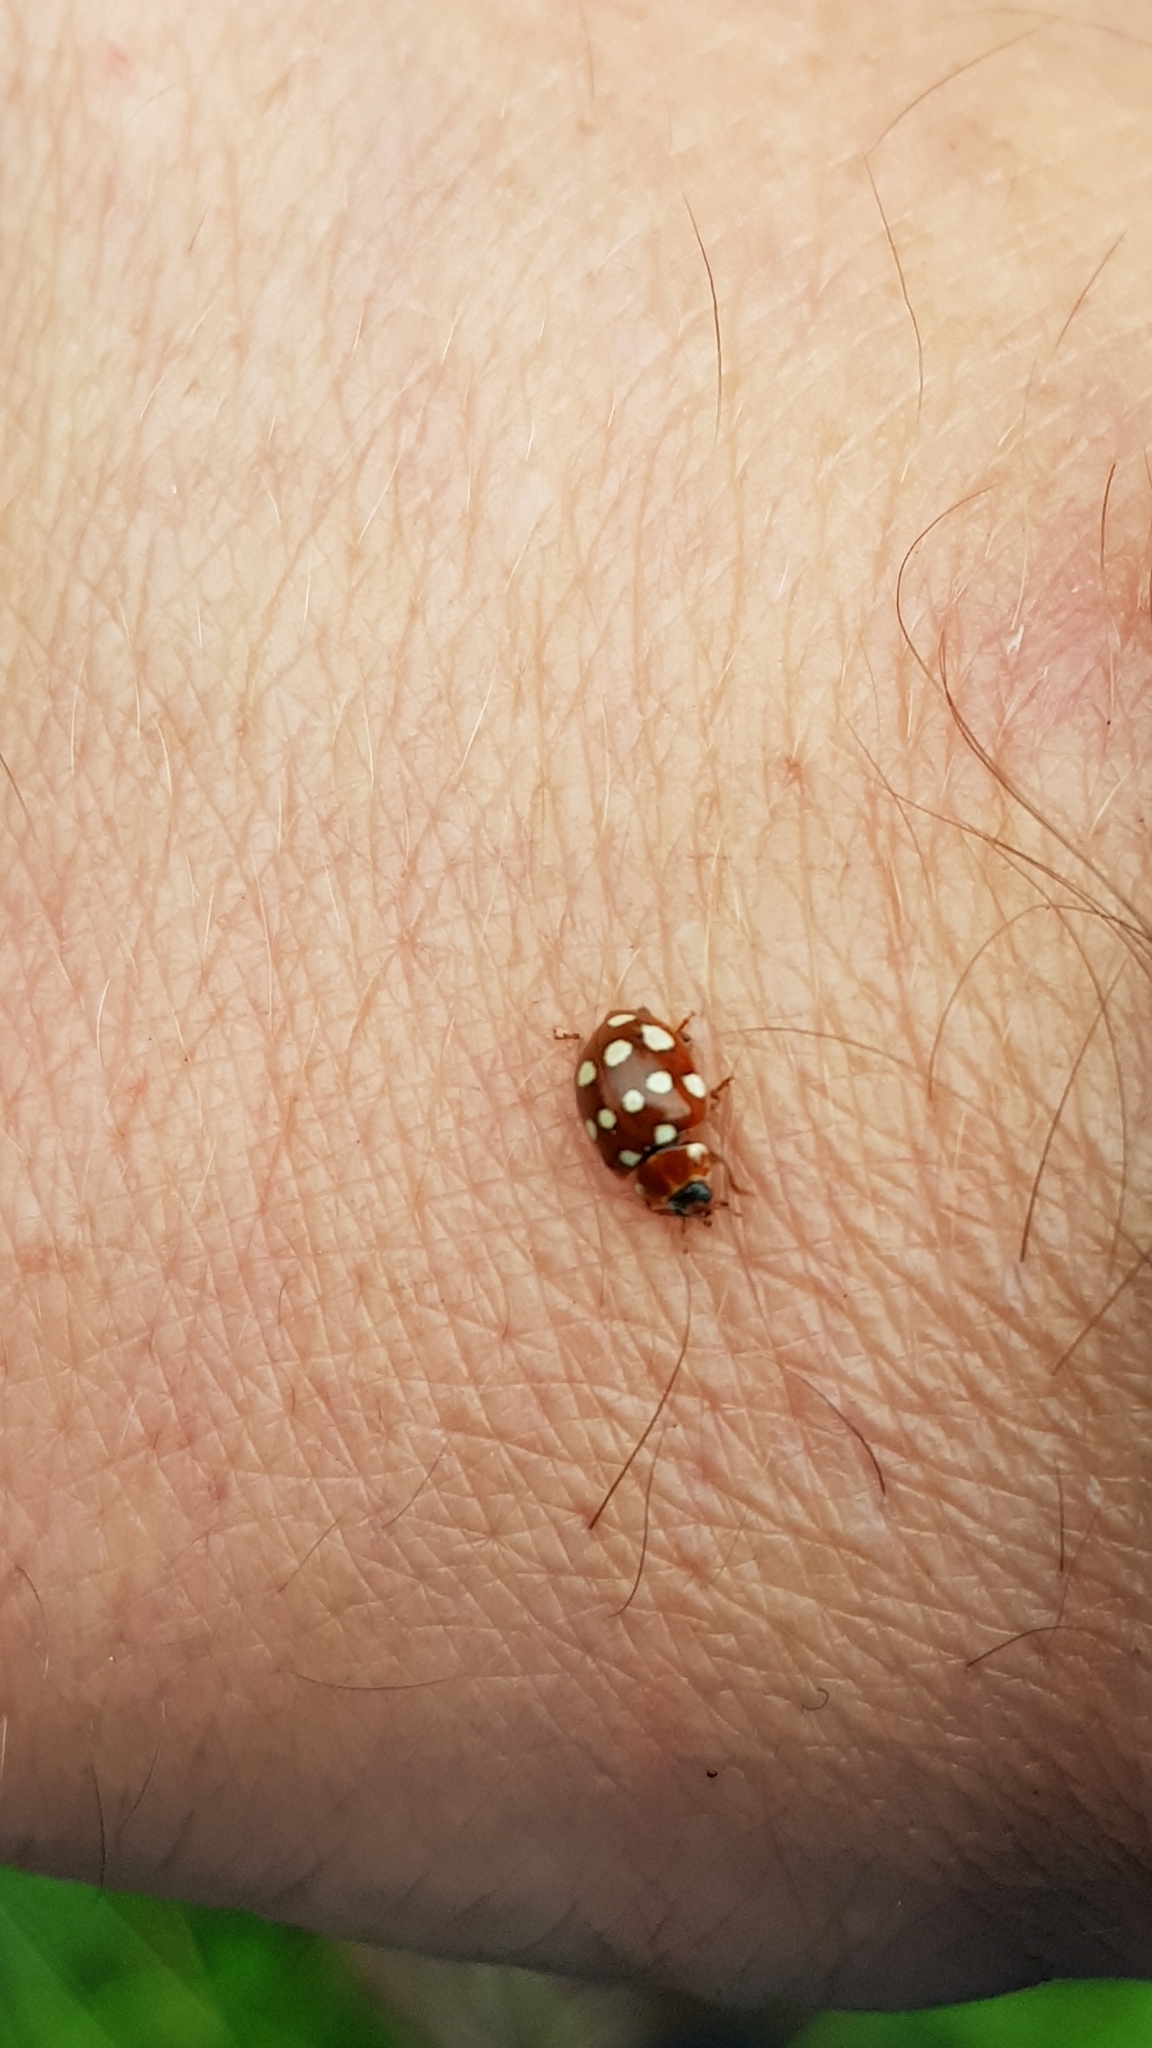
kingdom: Animalia
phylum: Arthropoda
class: Insecta
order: Coleoptera
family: Coccinellidae
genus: Calvia
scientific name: Calvia quatuordecimguttata
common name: Cream-spot ladybird
